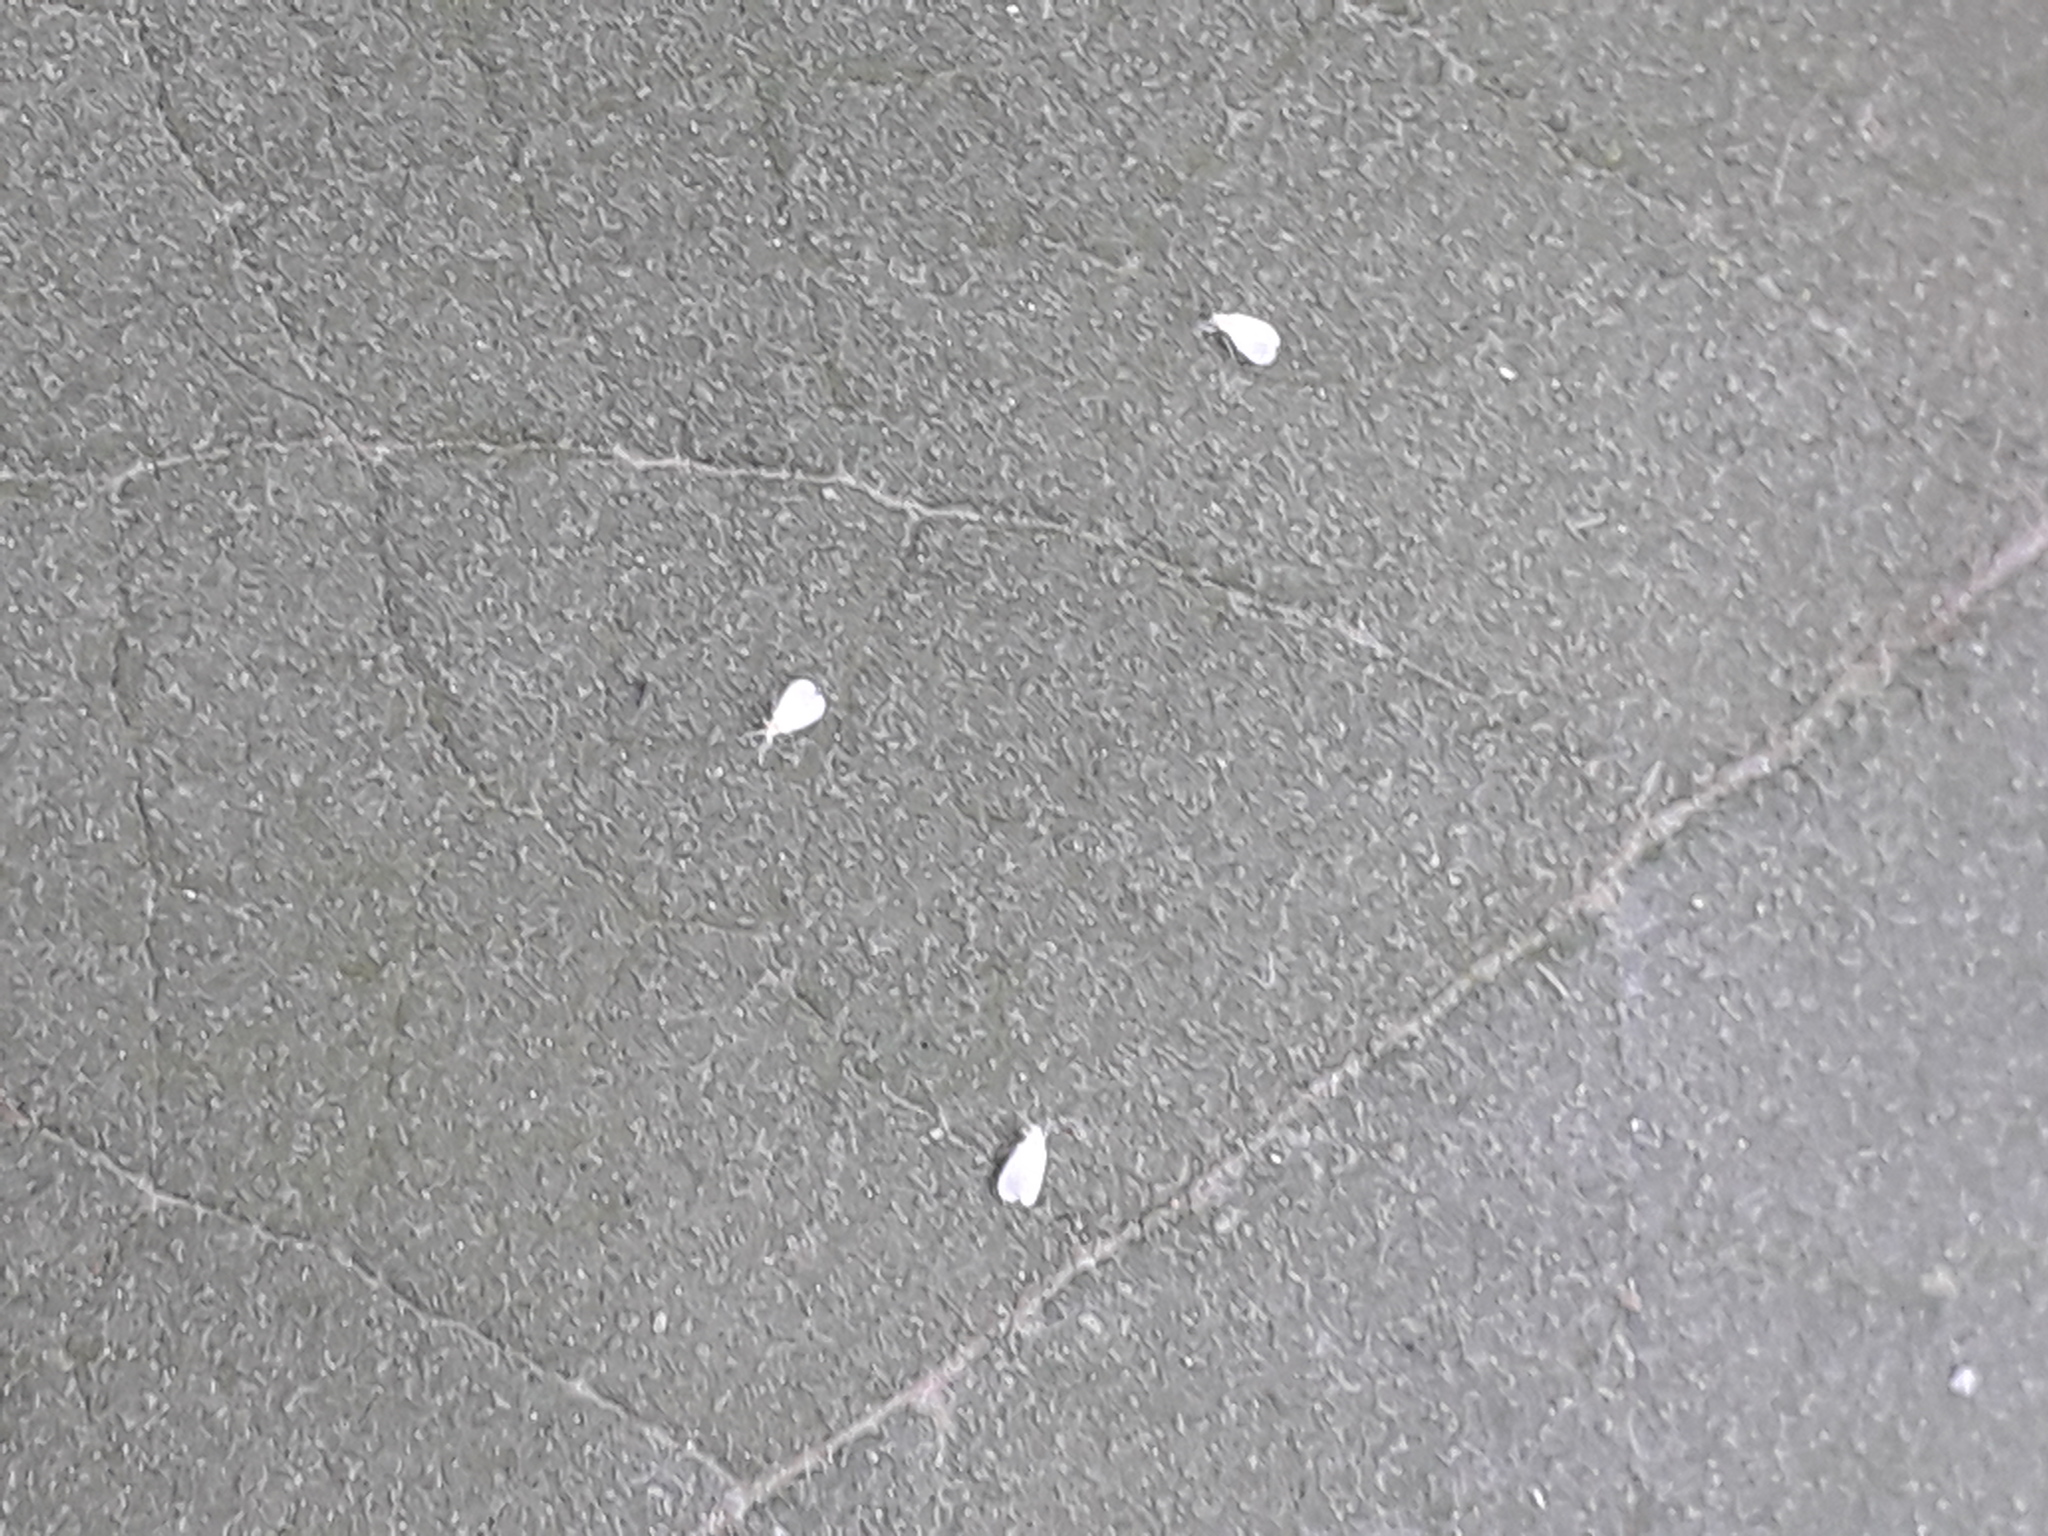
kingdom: Animalia
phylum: Arthropoda
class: Insecta
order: Hemiptera
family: Aleyrodidae
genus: Trialeurodes
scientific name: Trialeurodes vaporariorum
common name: Greenhouse white fly
